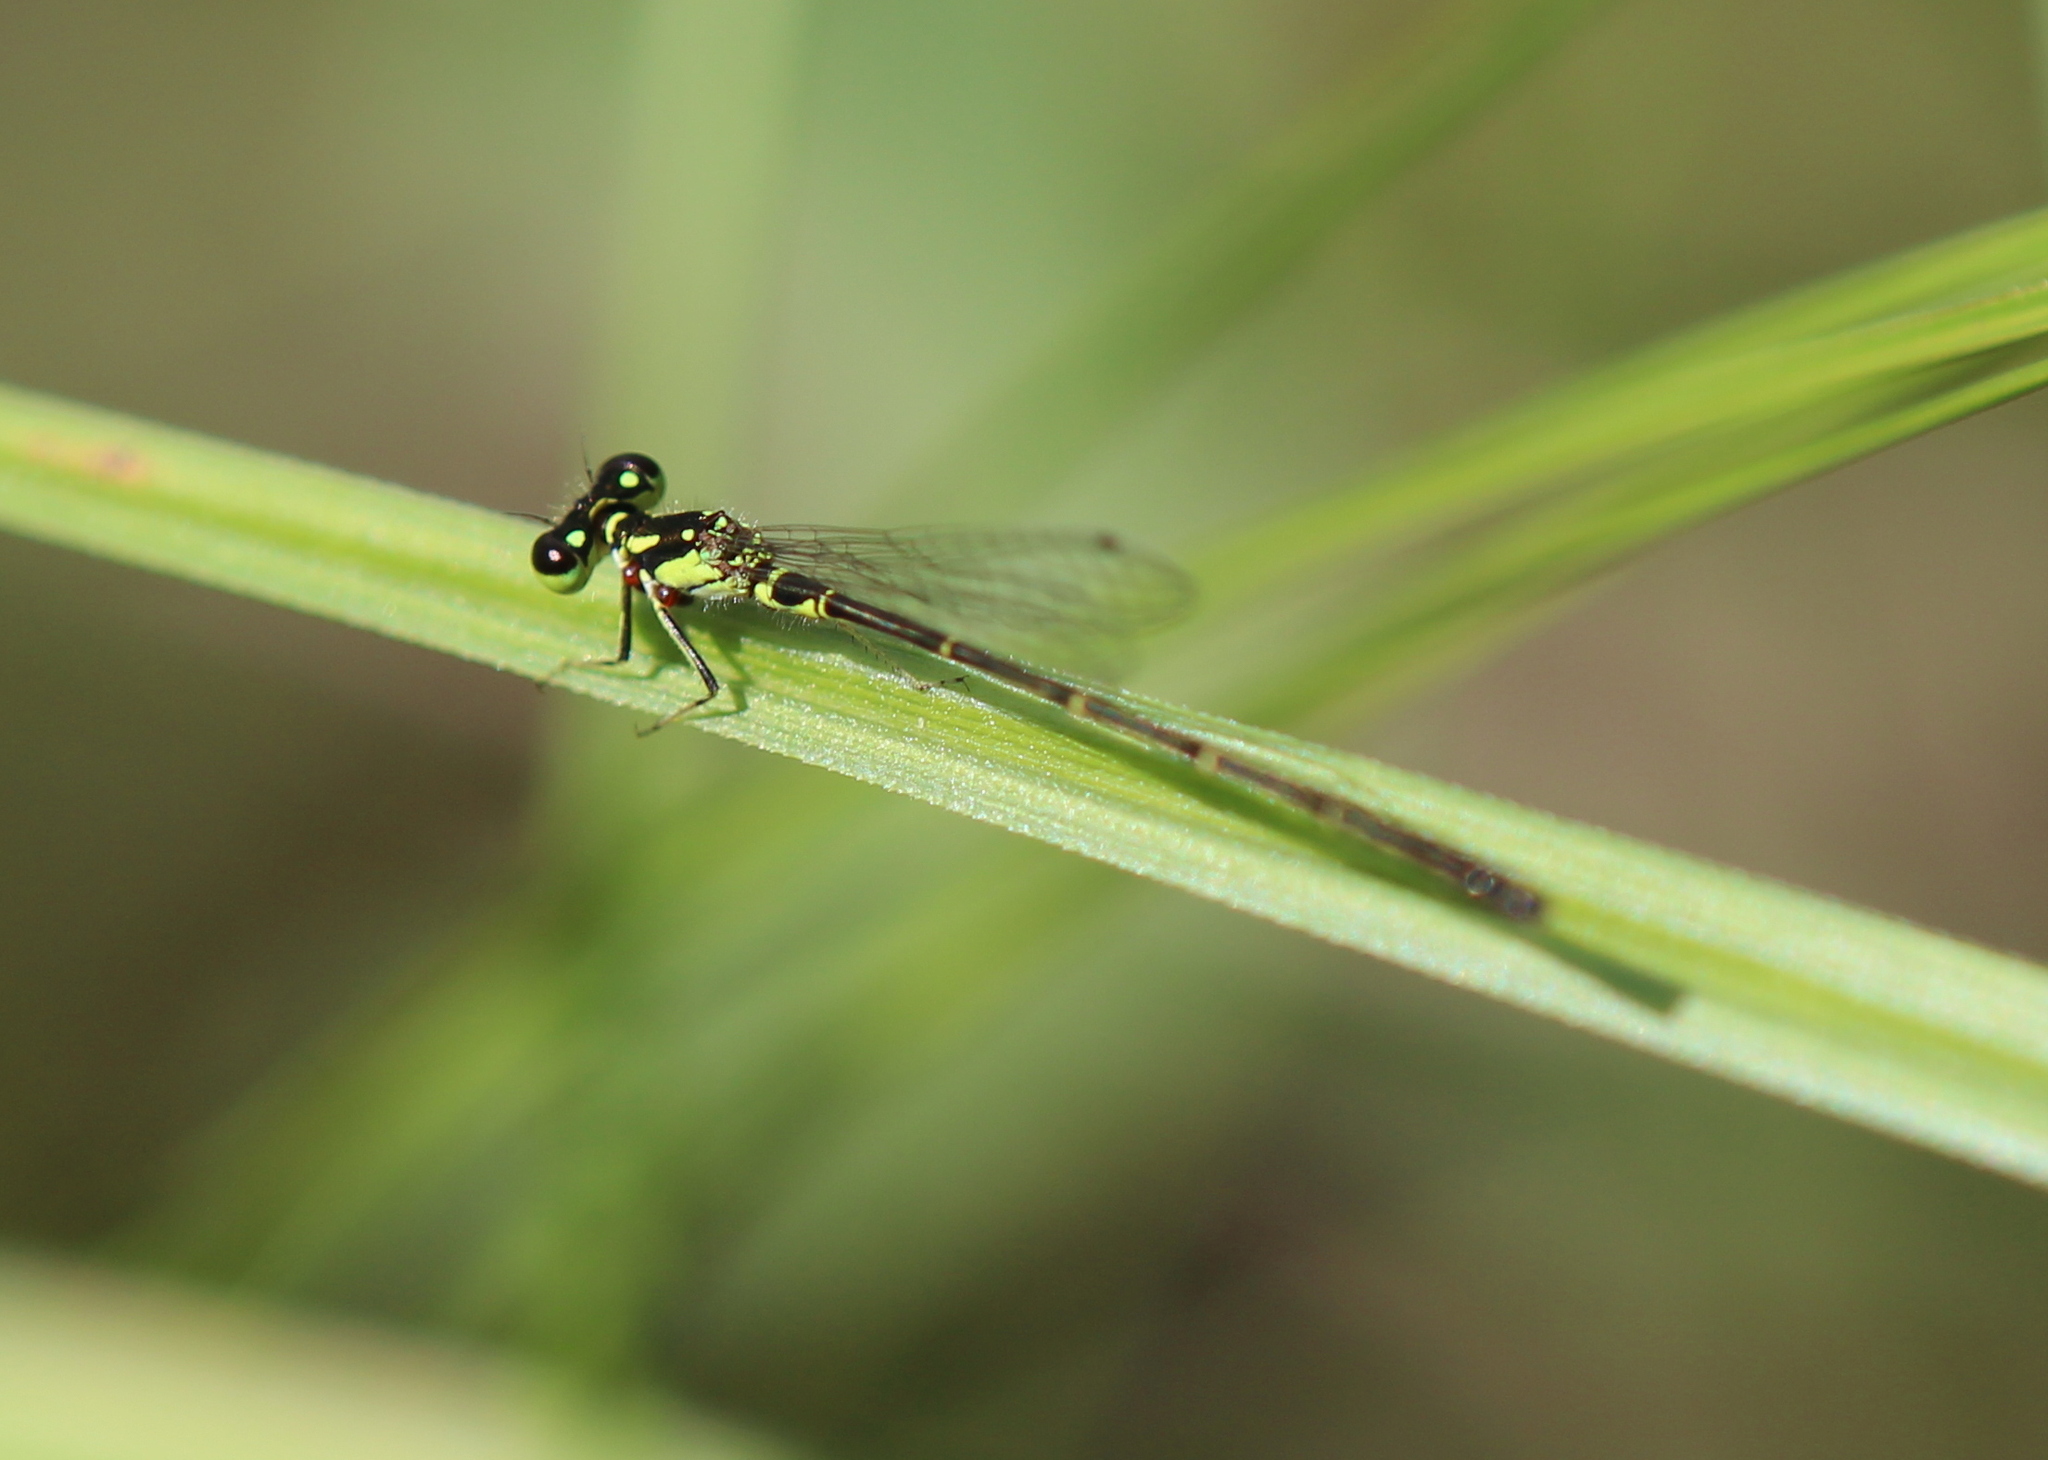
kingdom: Animalia
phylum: Arthropoda
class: Insecta
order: Odonata
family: Coenagrionidae
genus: Ischnura
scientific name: Ischnura posita
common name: Fragile forktail
